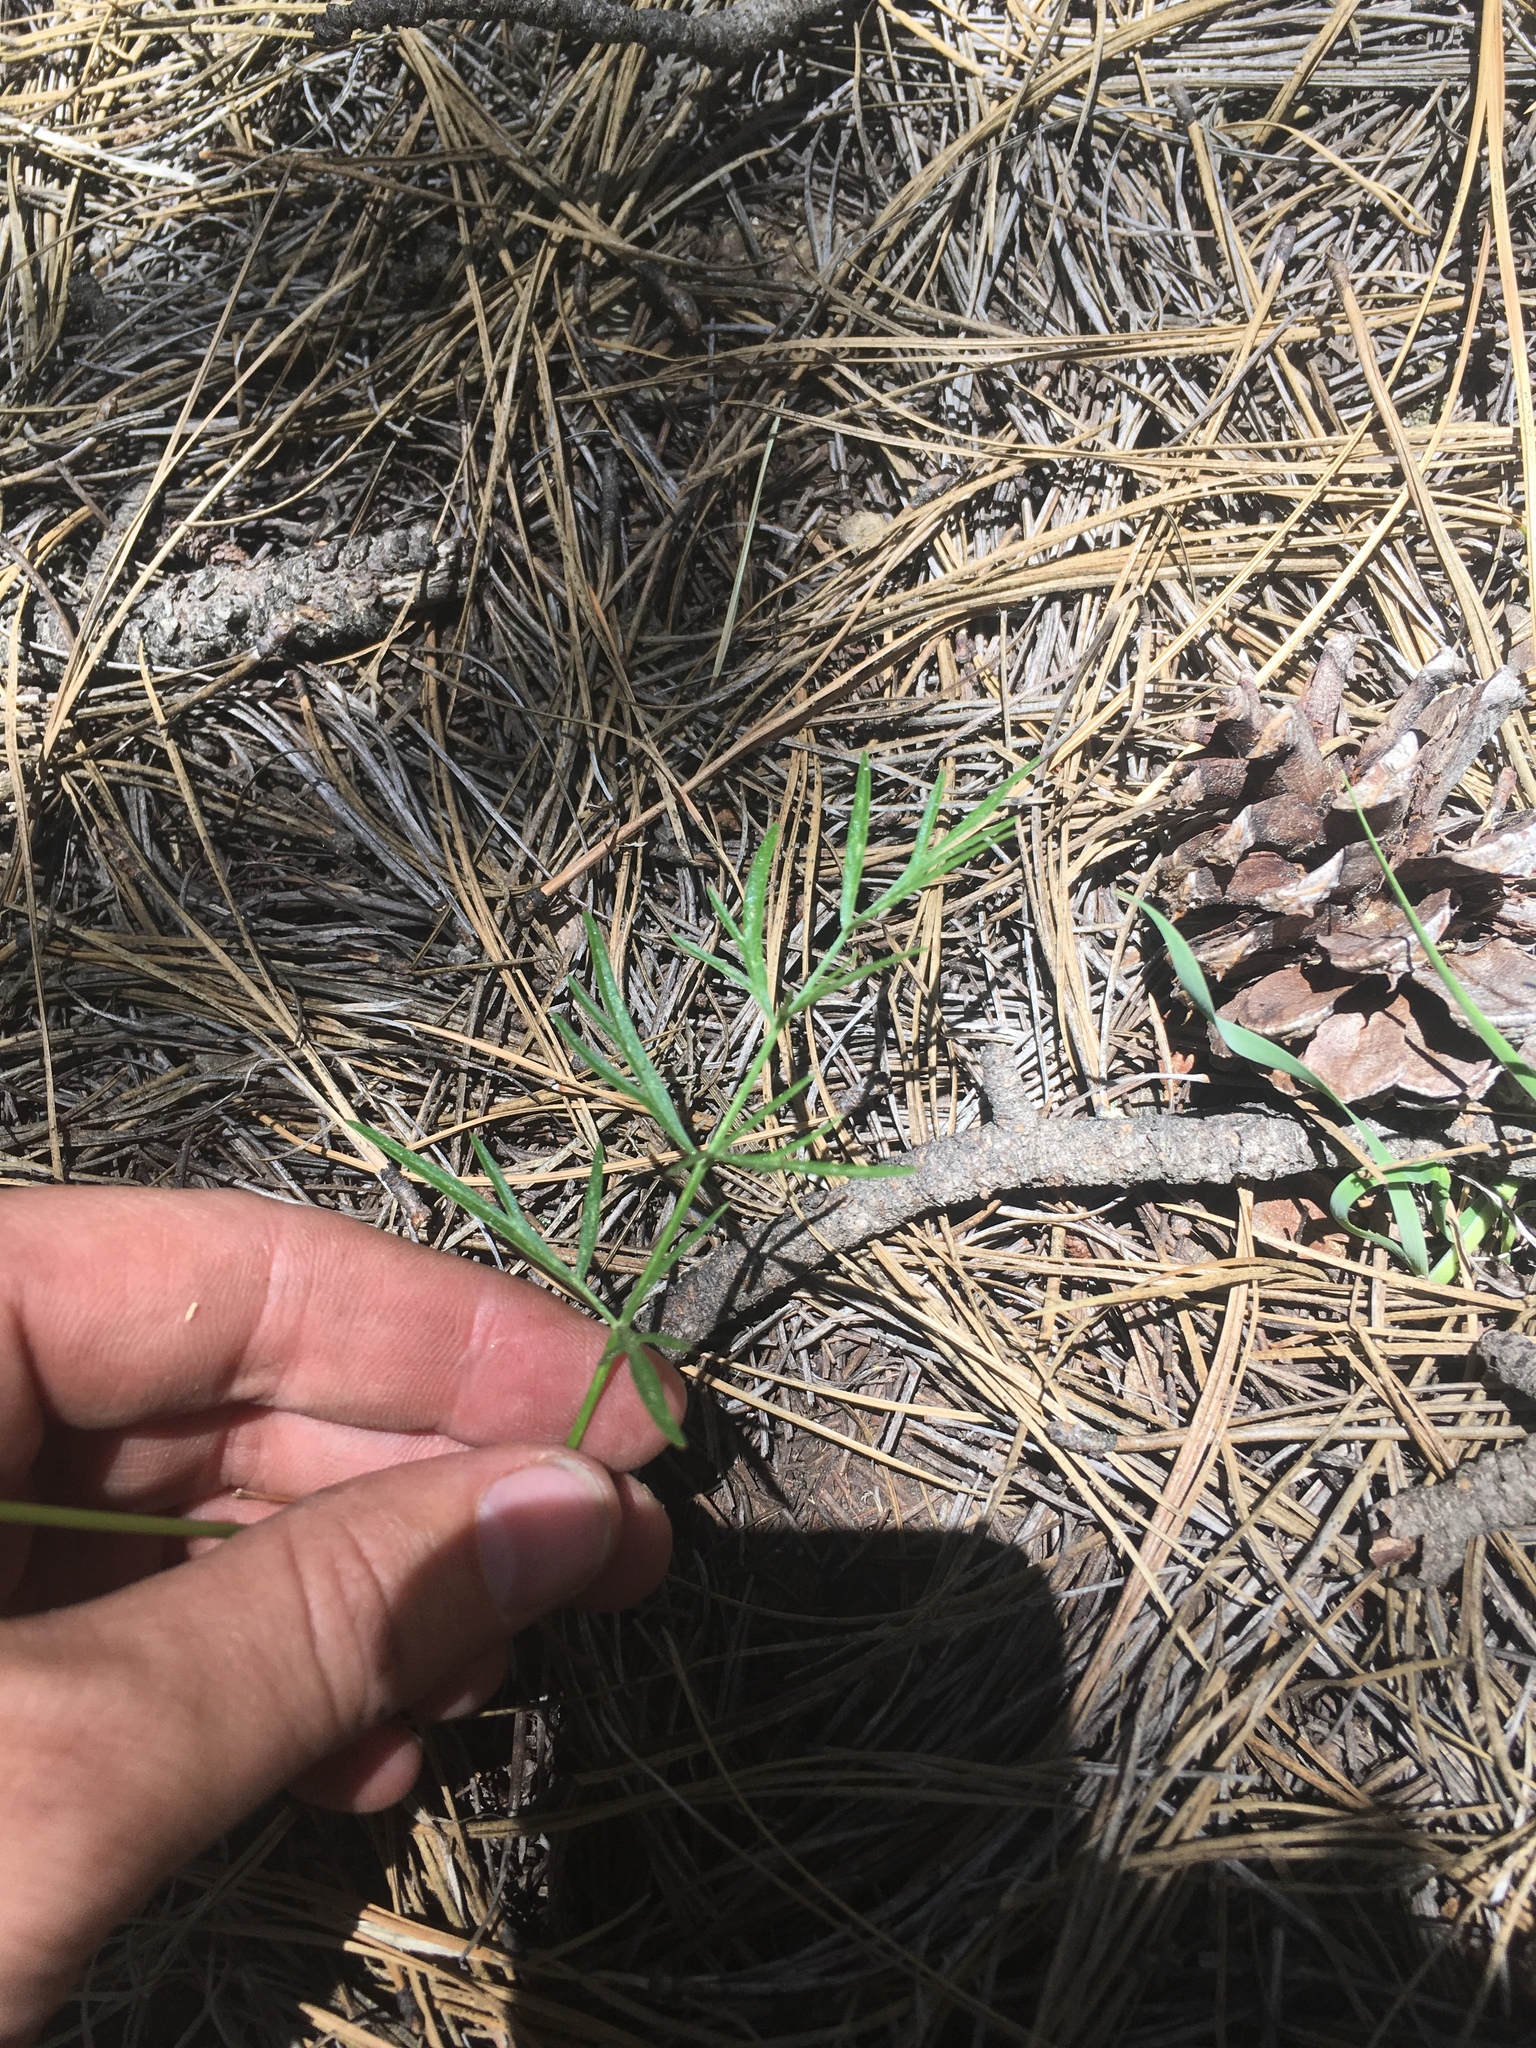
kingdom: Plantae
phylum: Tracheophyta
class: Magnoliopsida
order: Apiales
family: Apiaceae
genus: Cymopterus
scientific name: Cymopterus lemmonii
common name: Lemmon's spring-parsley
